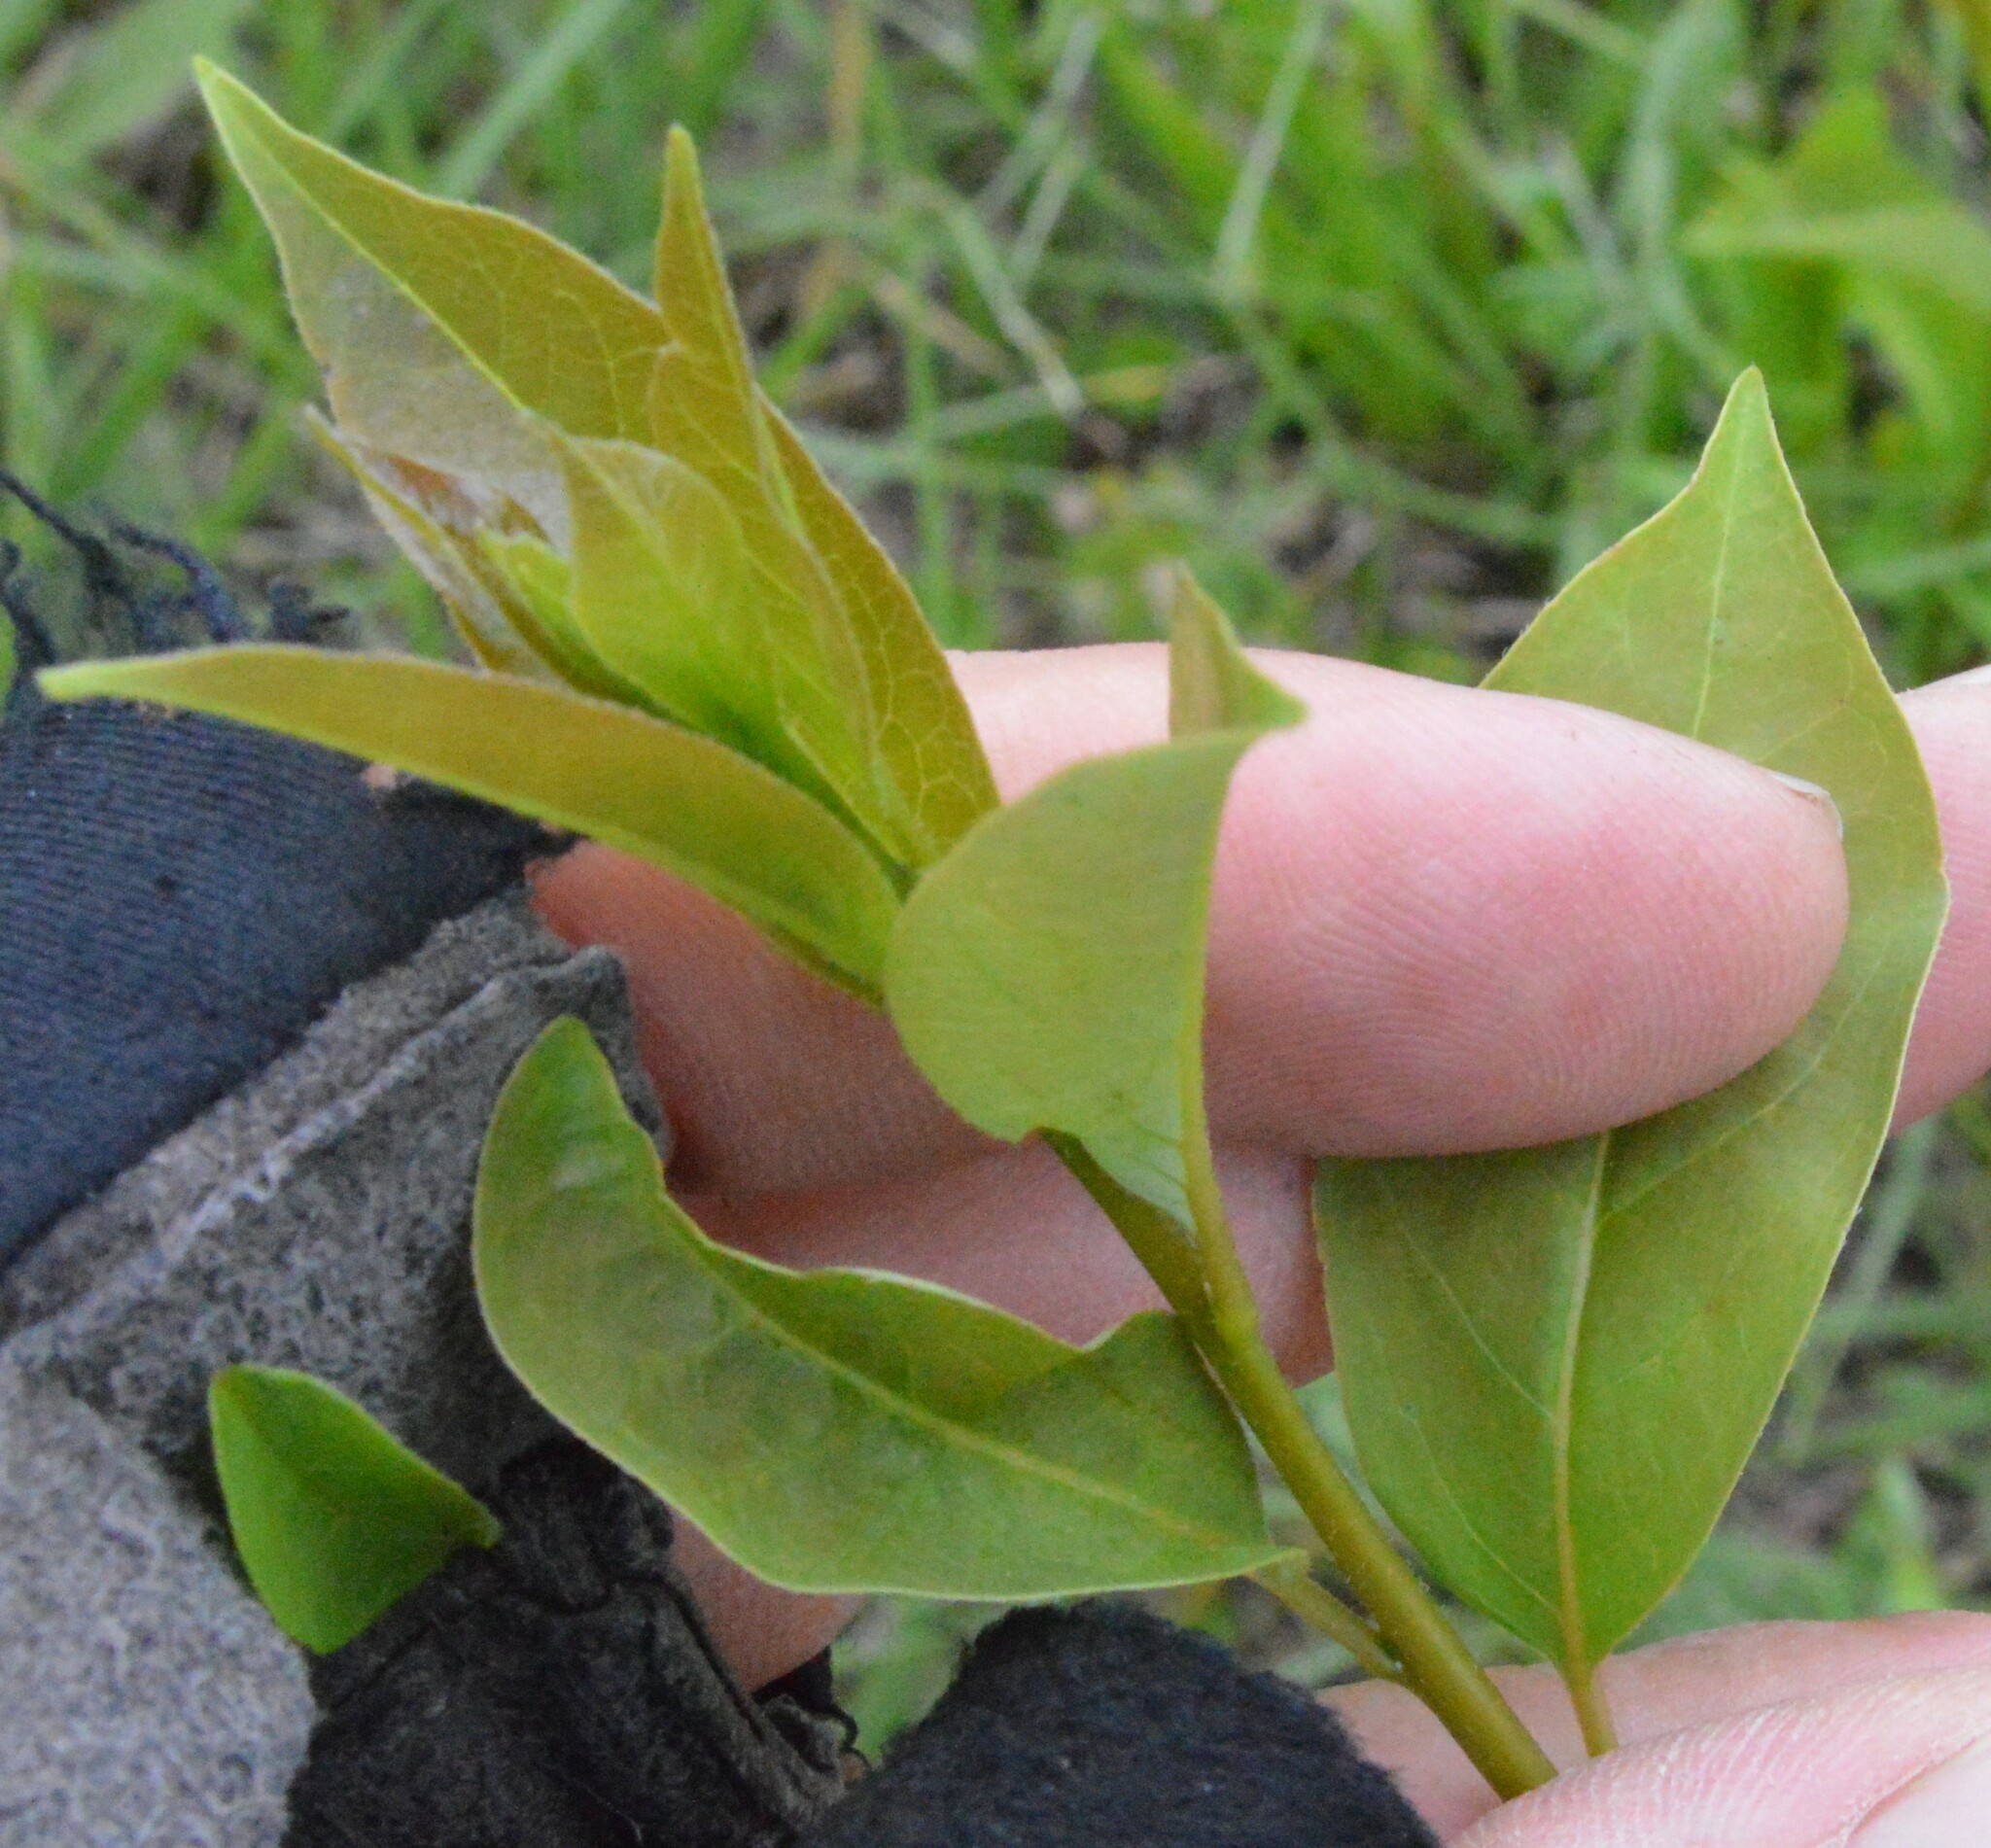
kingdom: Plantae
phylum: Tracheophyta
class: Magnoliopsida
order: Ericales
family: Ebenaceae
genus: Diospyros
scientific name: Diospyros virginiana
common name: Persimmon
